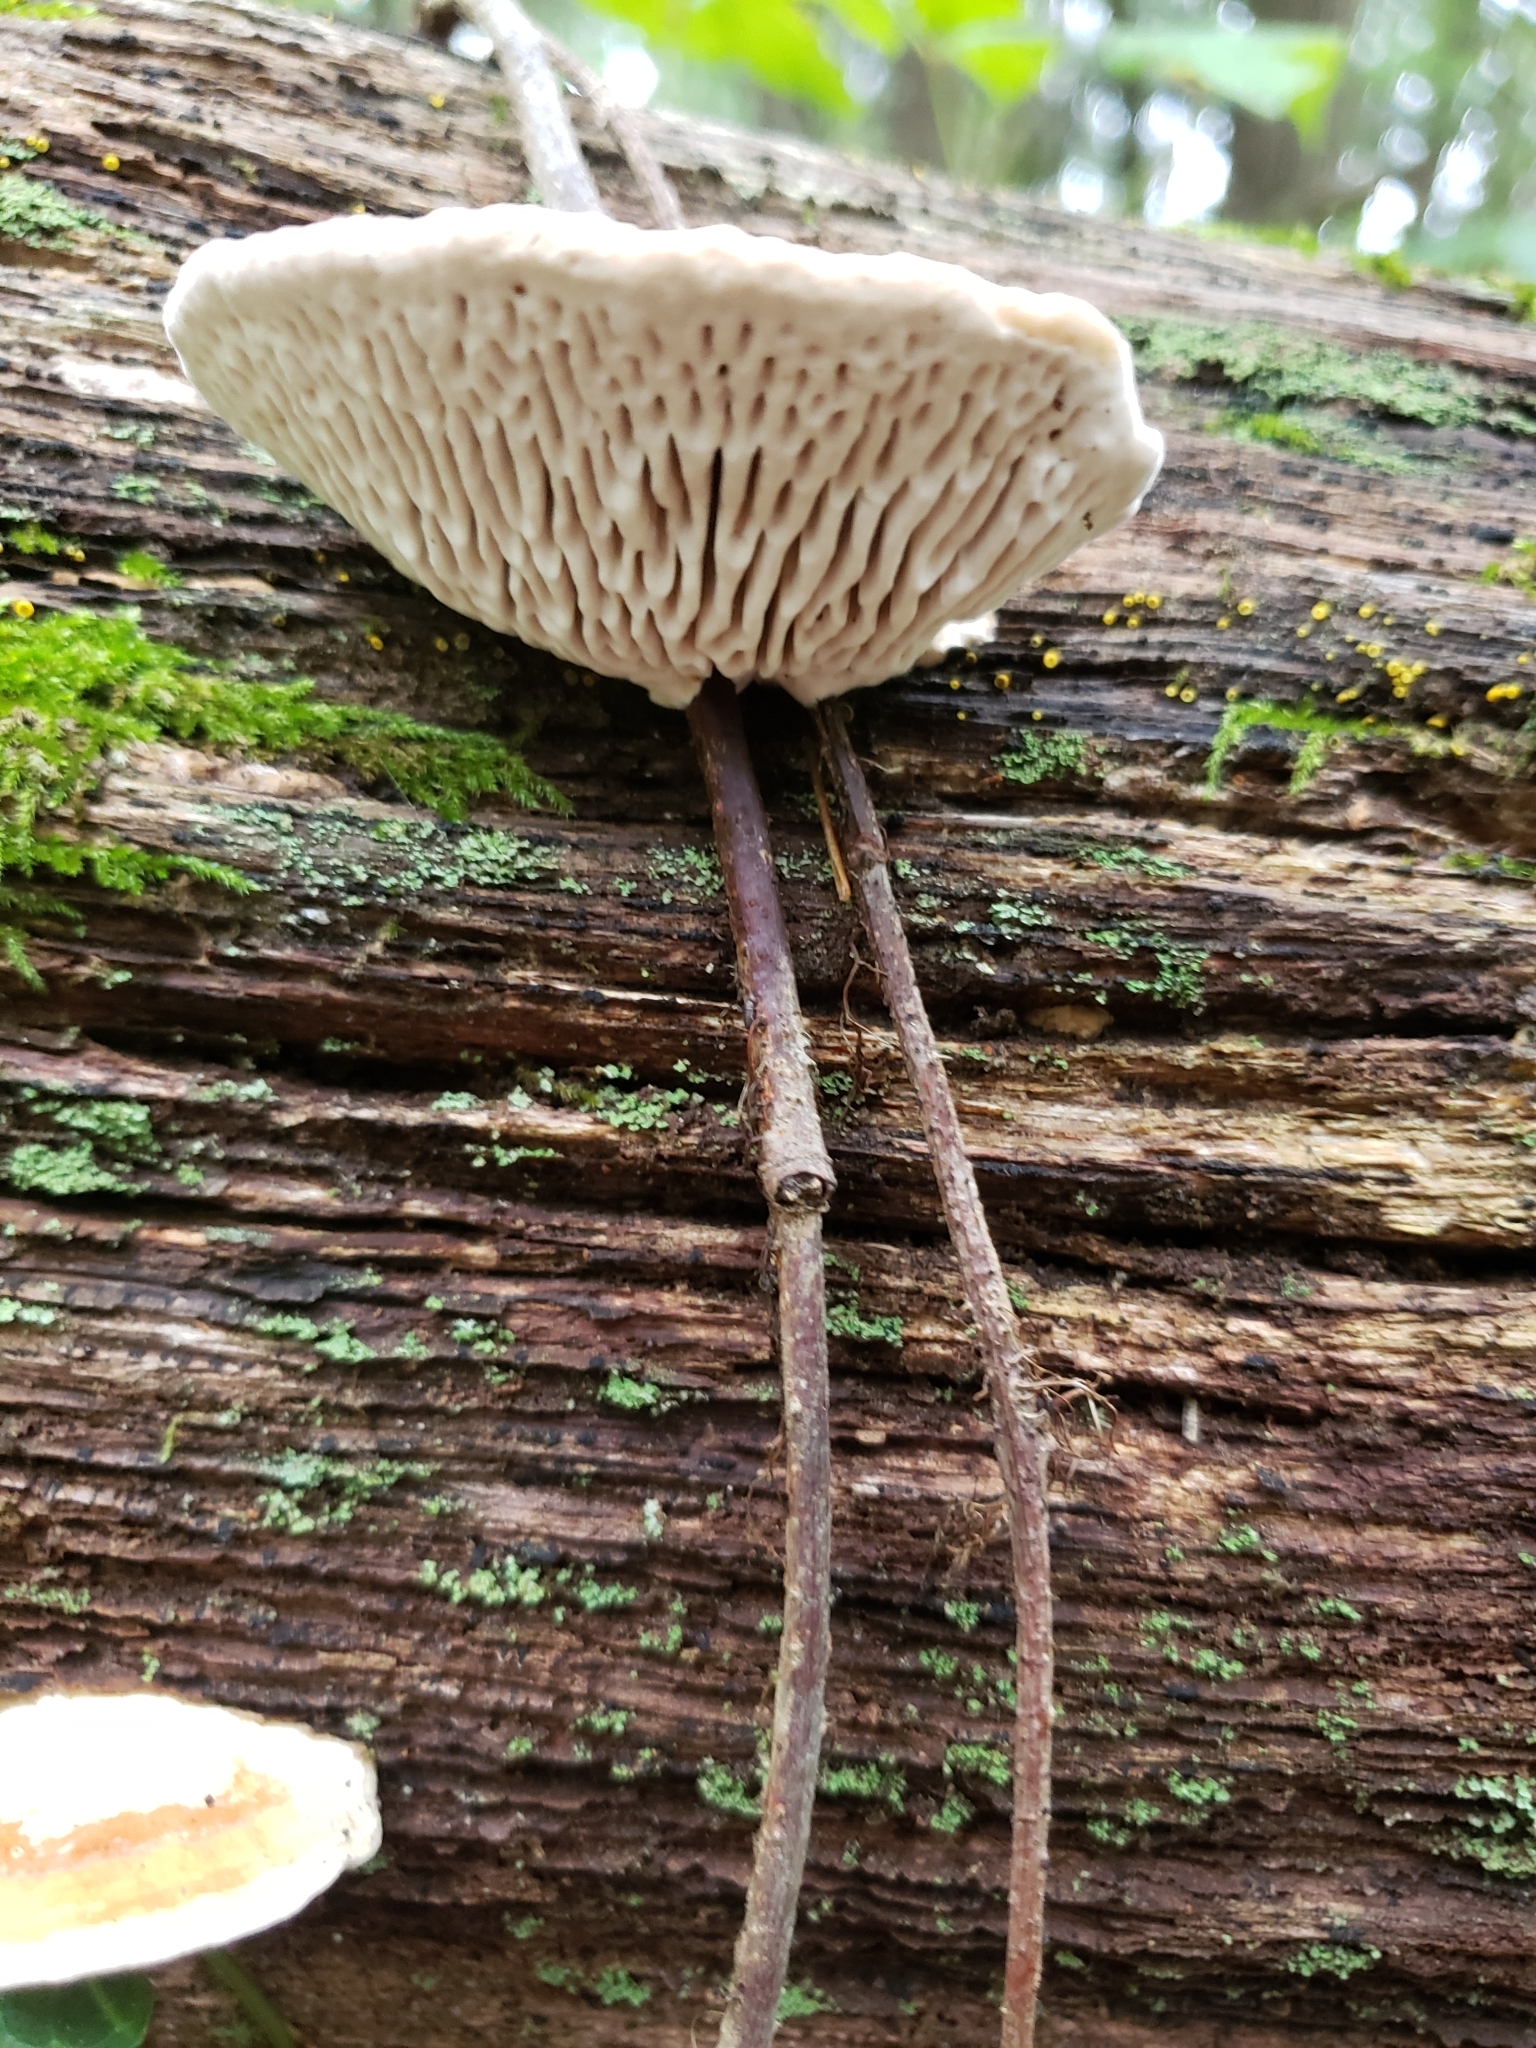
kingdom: Fungi
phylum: Basidiomycota
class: Agaricomycetes
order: Polyporales
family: Fomitopsidaceae
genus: Fomitopsis
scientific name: Fomitopsis
